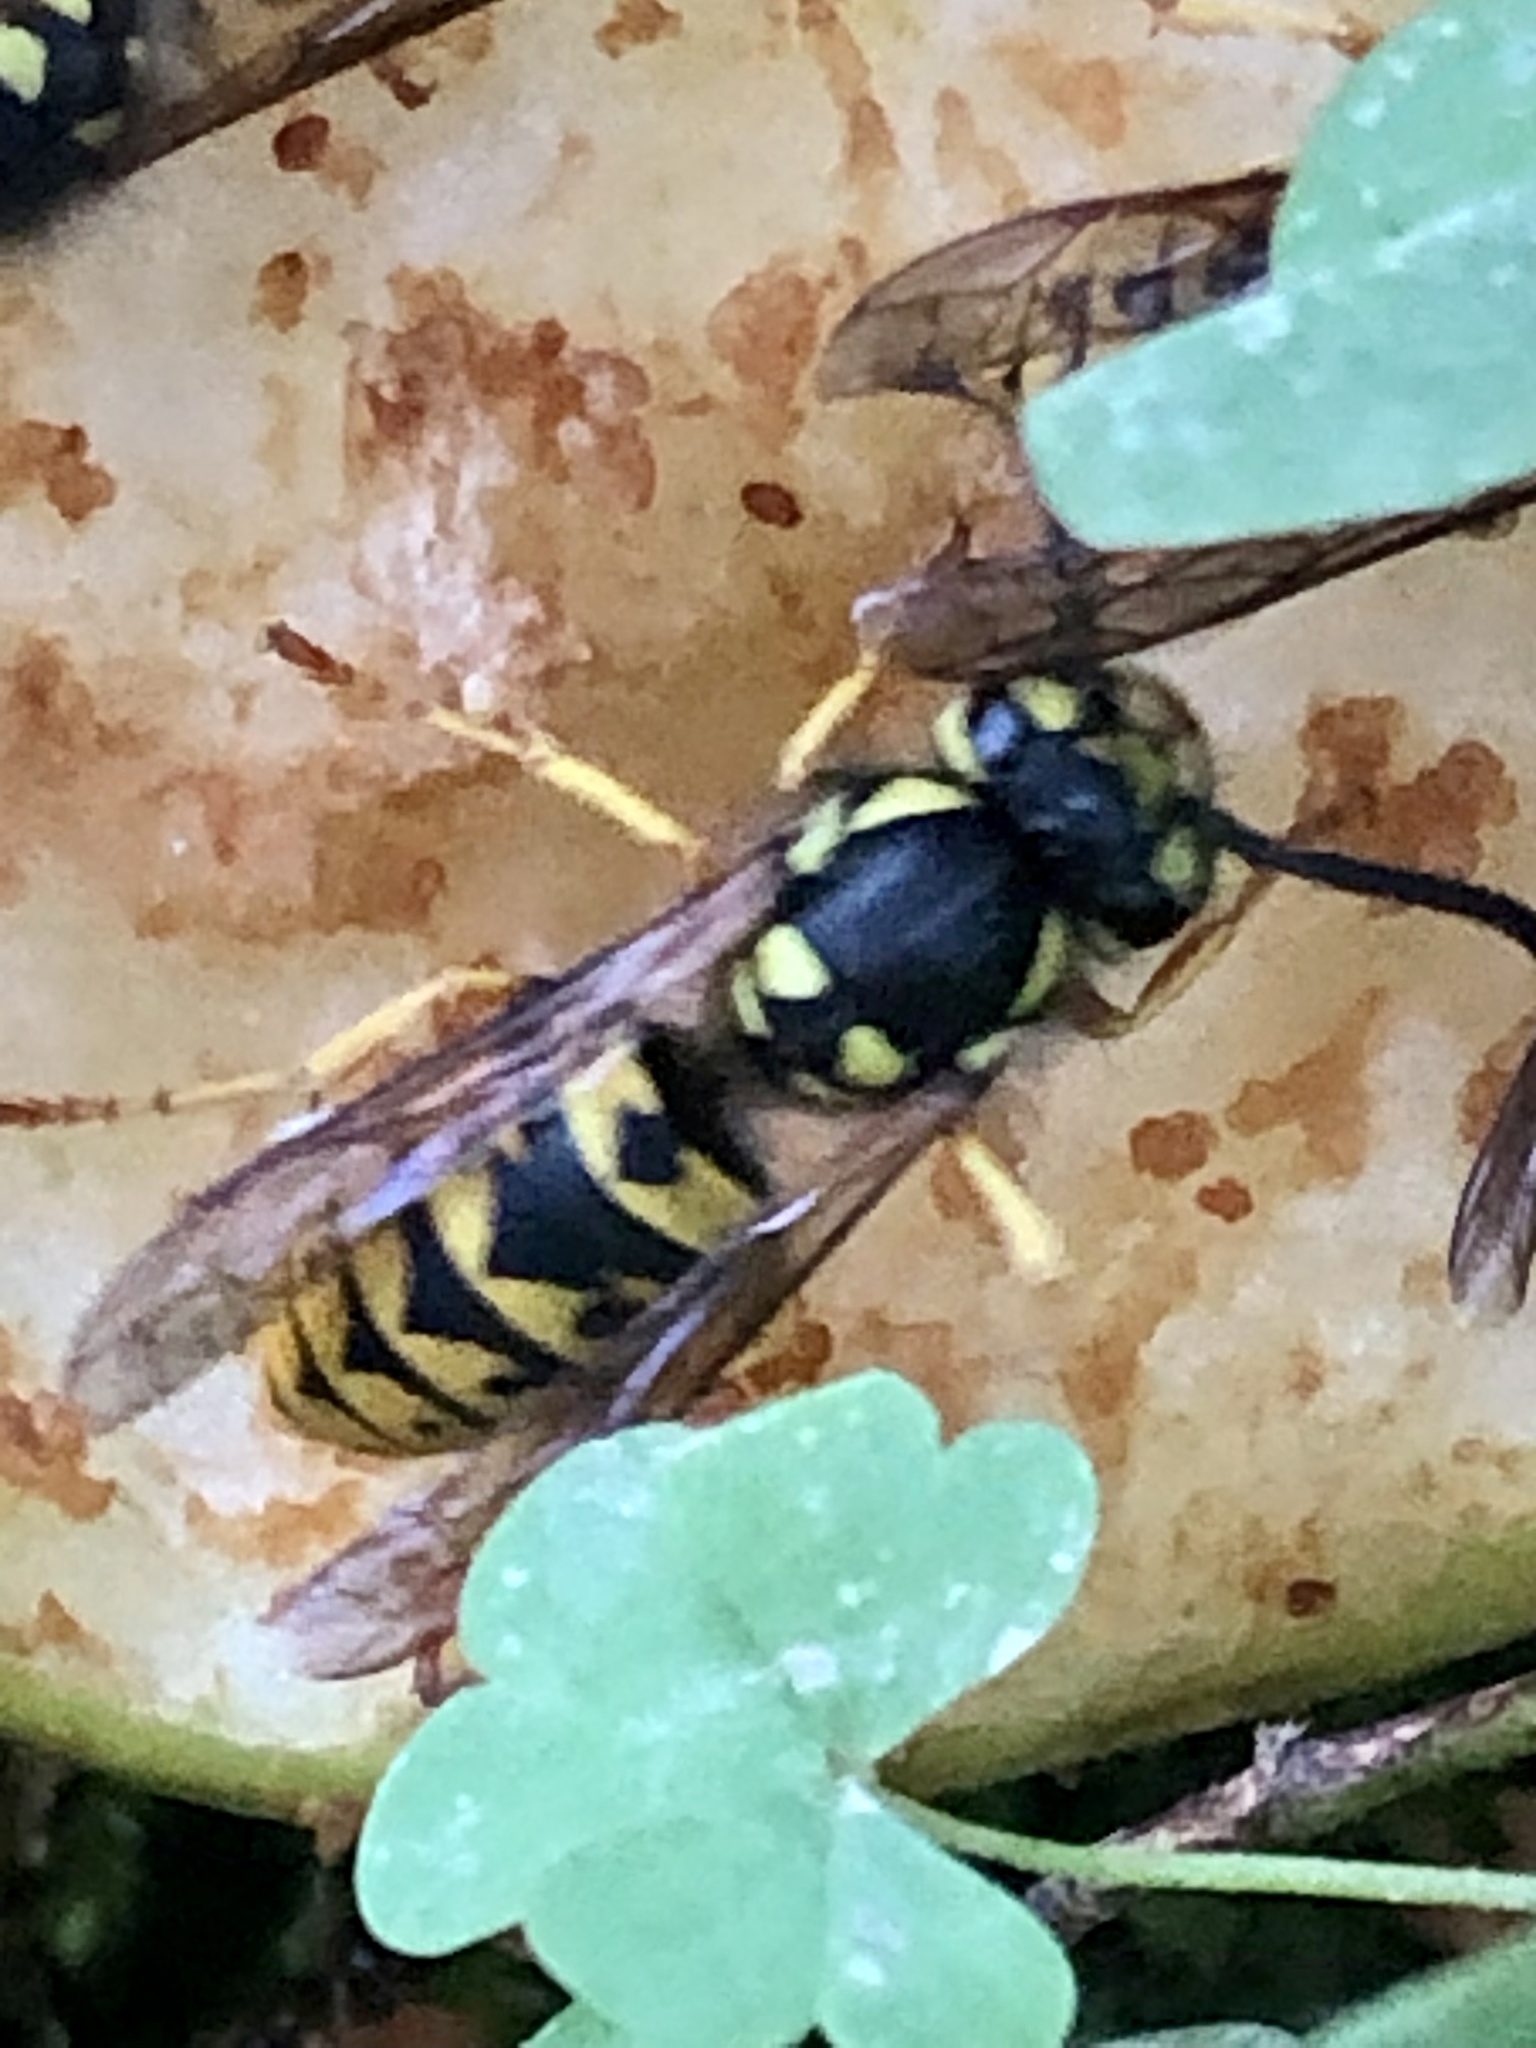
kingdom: Animalia
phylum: Arthropoda
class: Insecta
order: Hymenoptera
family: Vespidae
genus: Vespula
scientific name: Vespula germanica
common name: German wasp
